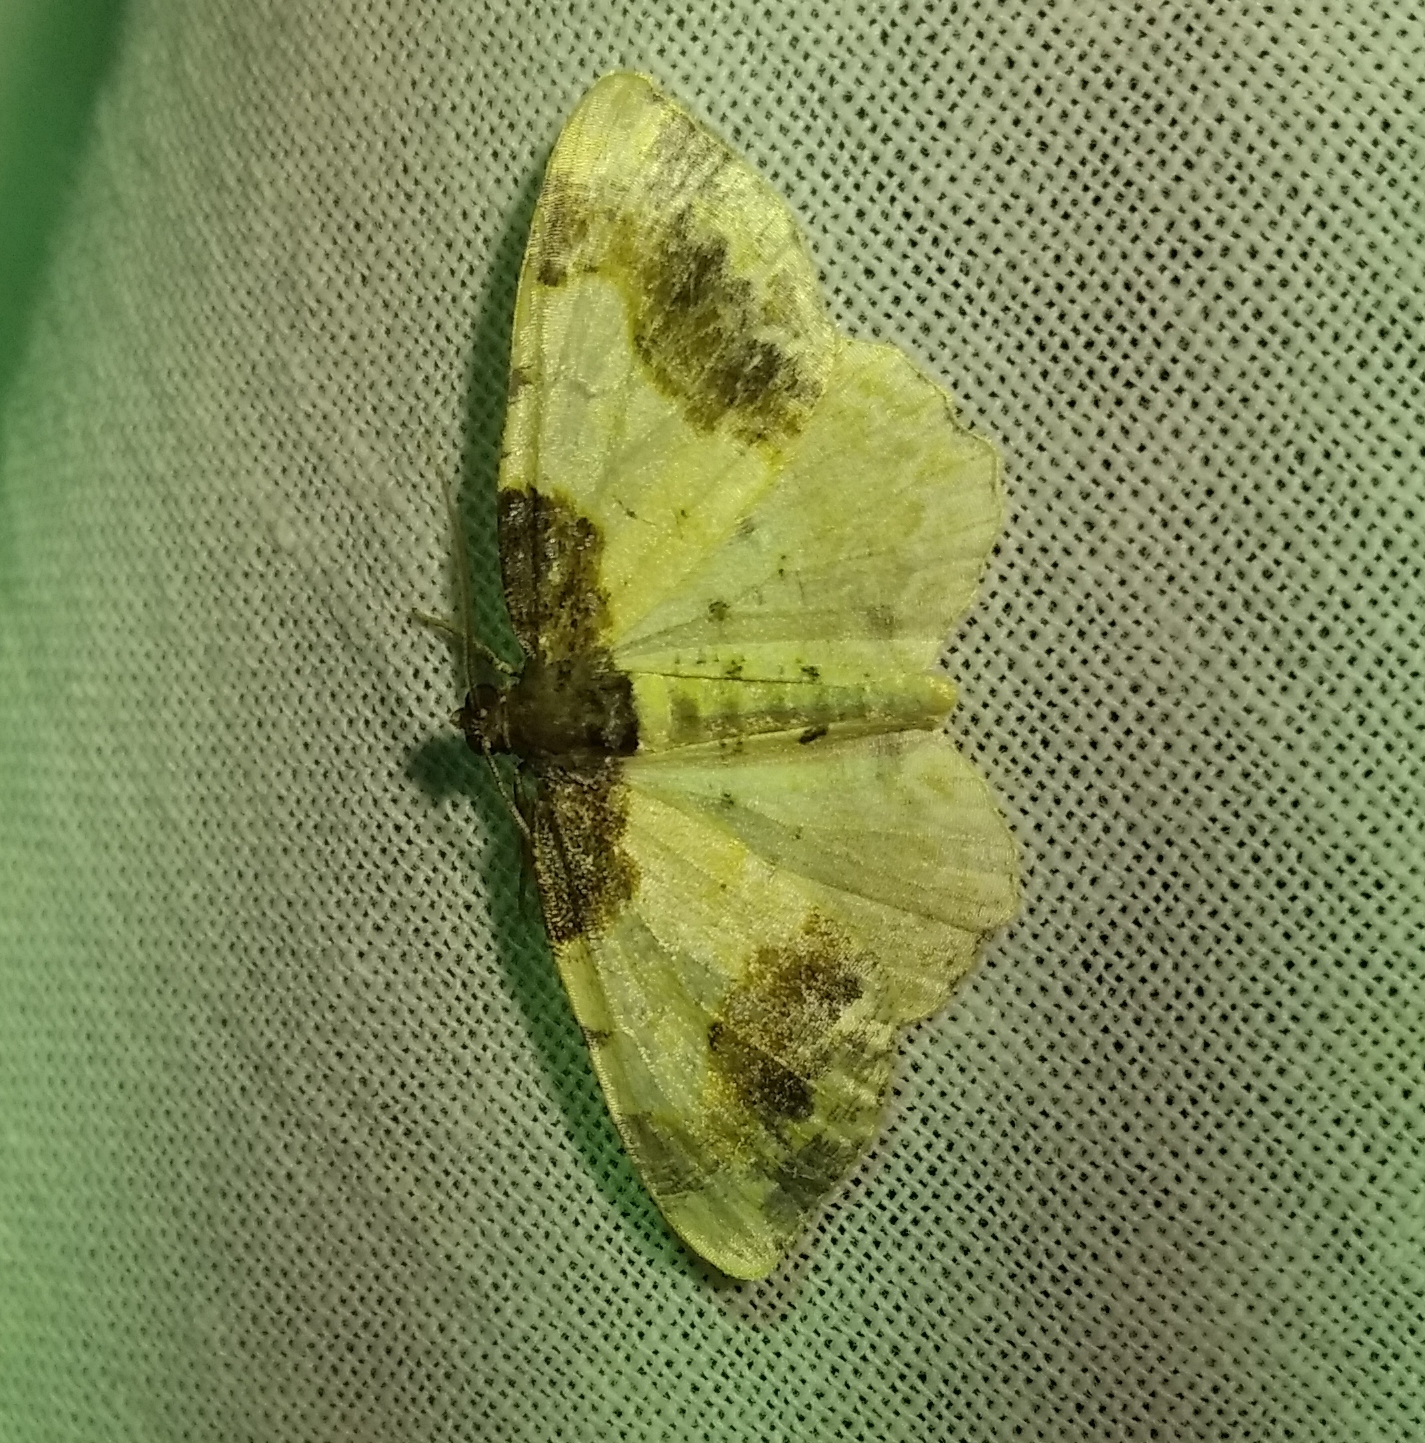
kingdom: Animalia
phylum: Arthropoda
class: Insecta
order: Lepidoptera
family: Geometridae
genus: Ligdia
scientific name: Ligdia adustata
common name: Scorched carpet
